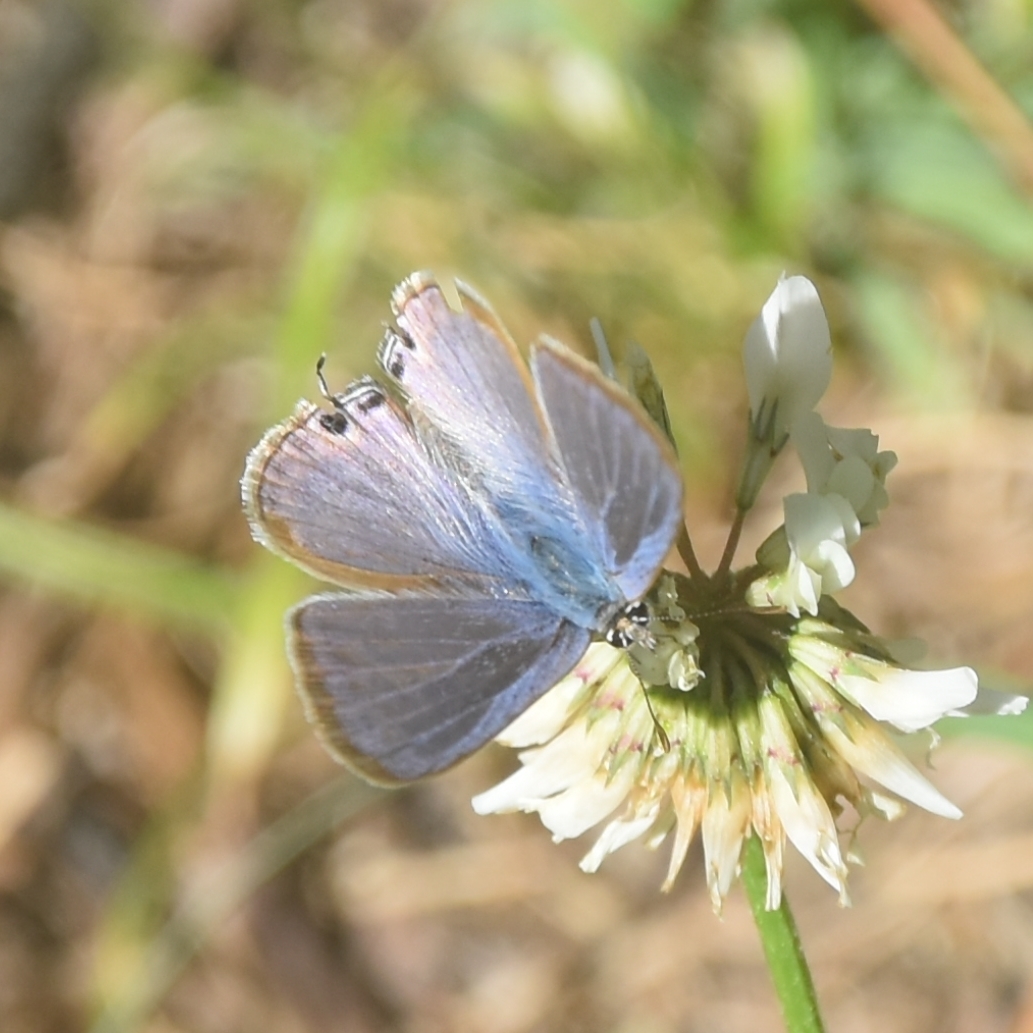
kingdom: Animalia
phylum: Arthropoda
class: Insecta
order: Lepidoptera
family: Lycaenidae
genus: Lampides
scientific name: Lampides boeticus
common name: Long-tailed blue
